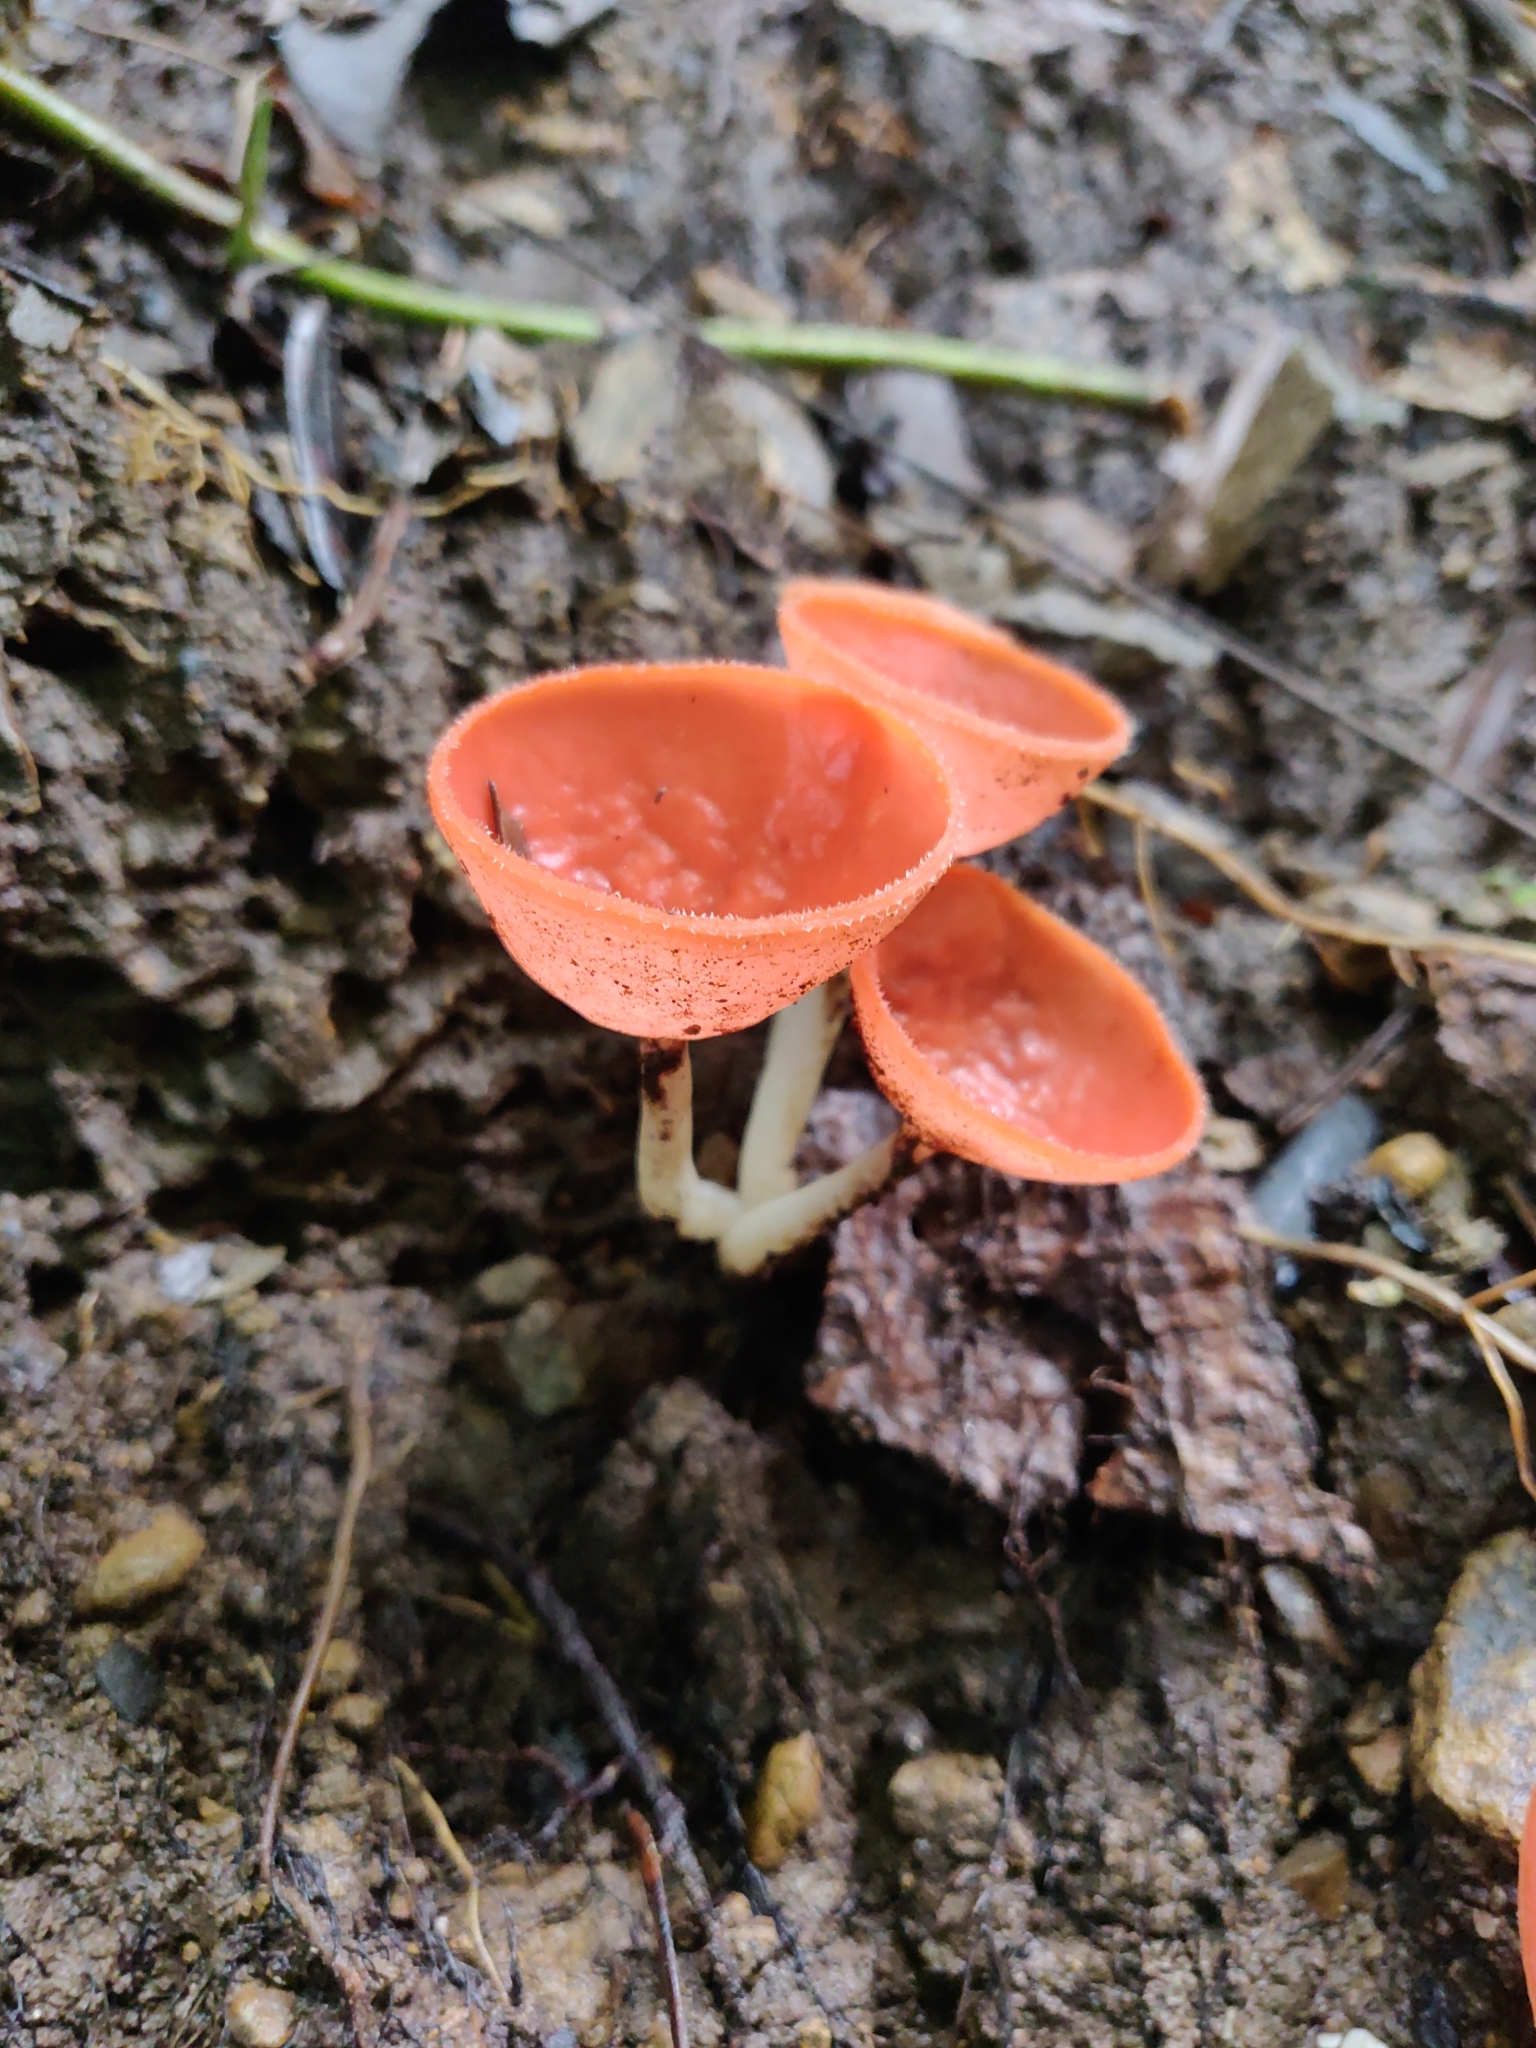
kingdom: Fungi
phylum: Ascomycota
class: Pezizomycetes
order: Pezizales
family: Sarcoscyphaceae
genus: Cookeina
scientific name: Cookeina speciosa
